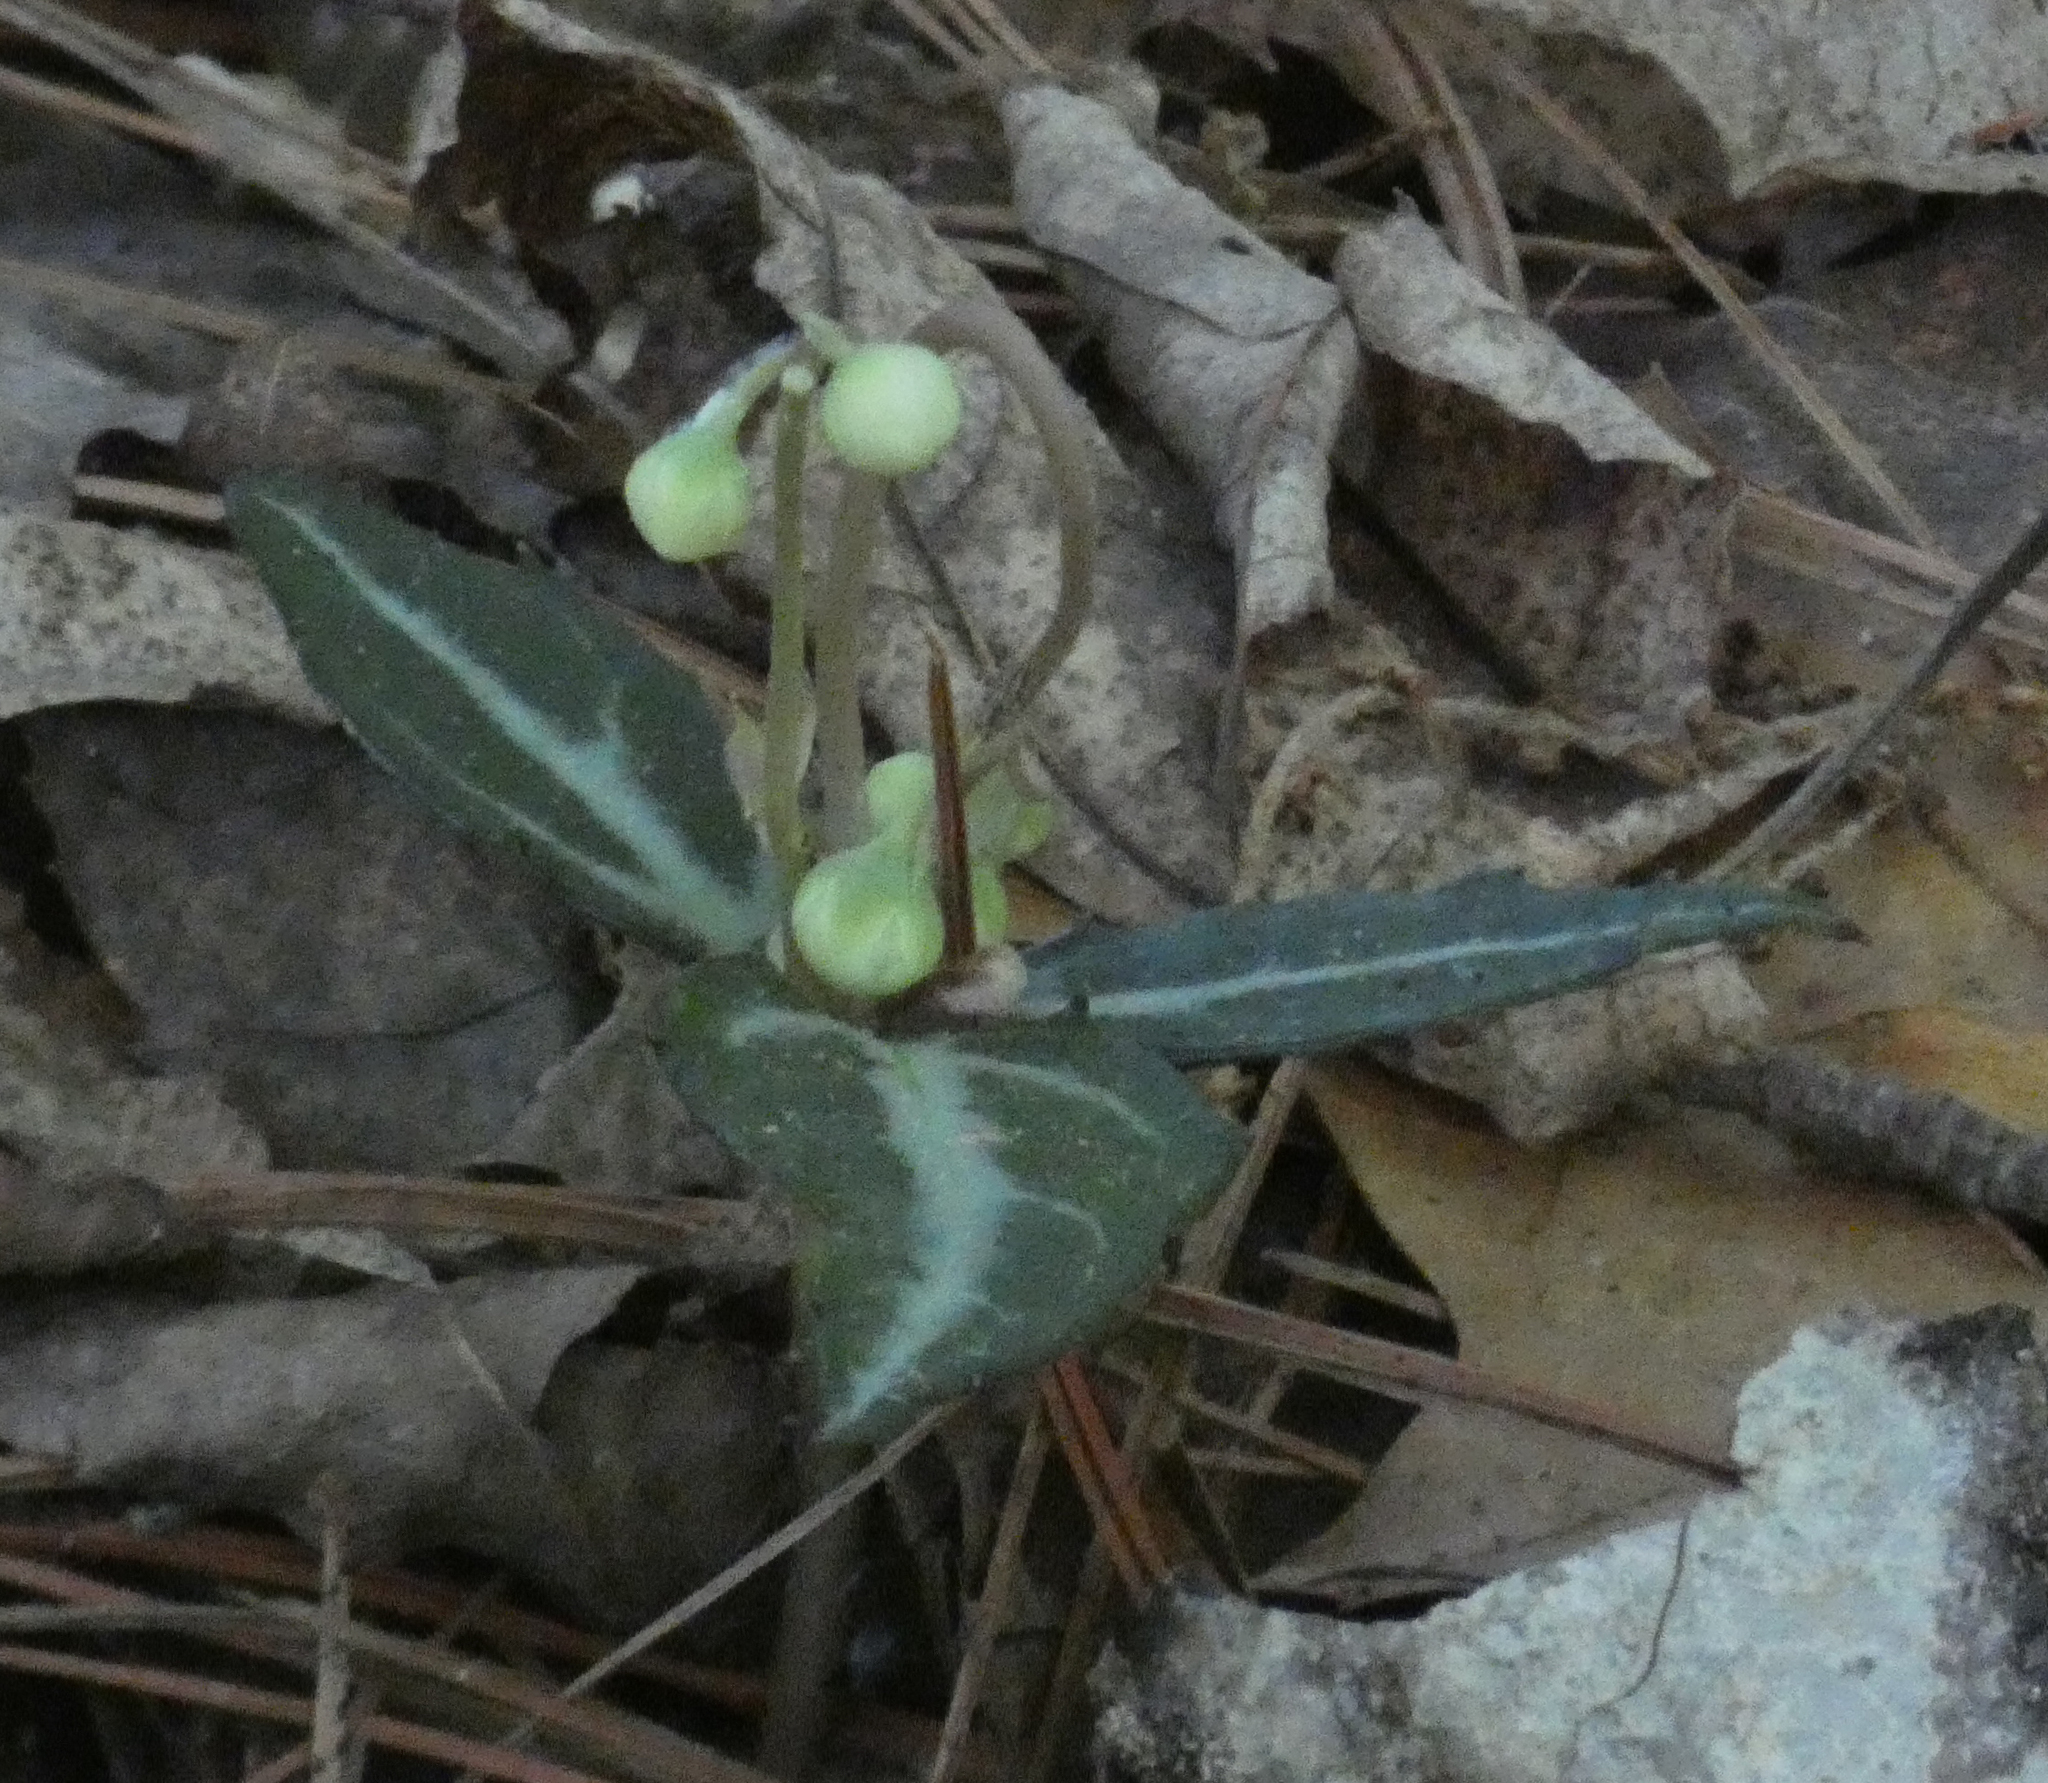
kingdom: Plantae
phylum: Tracheophyta
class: Magnoliopsida
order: Ericales
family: Ericaceae
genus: Chimaphila
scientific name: Chimaphila maculata
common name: Spotted pipsissewa
